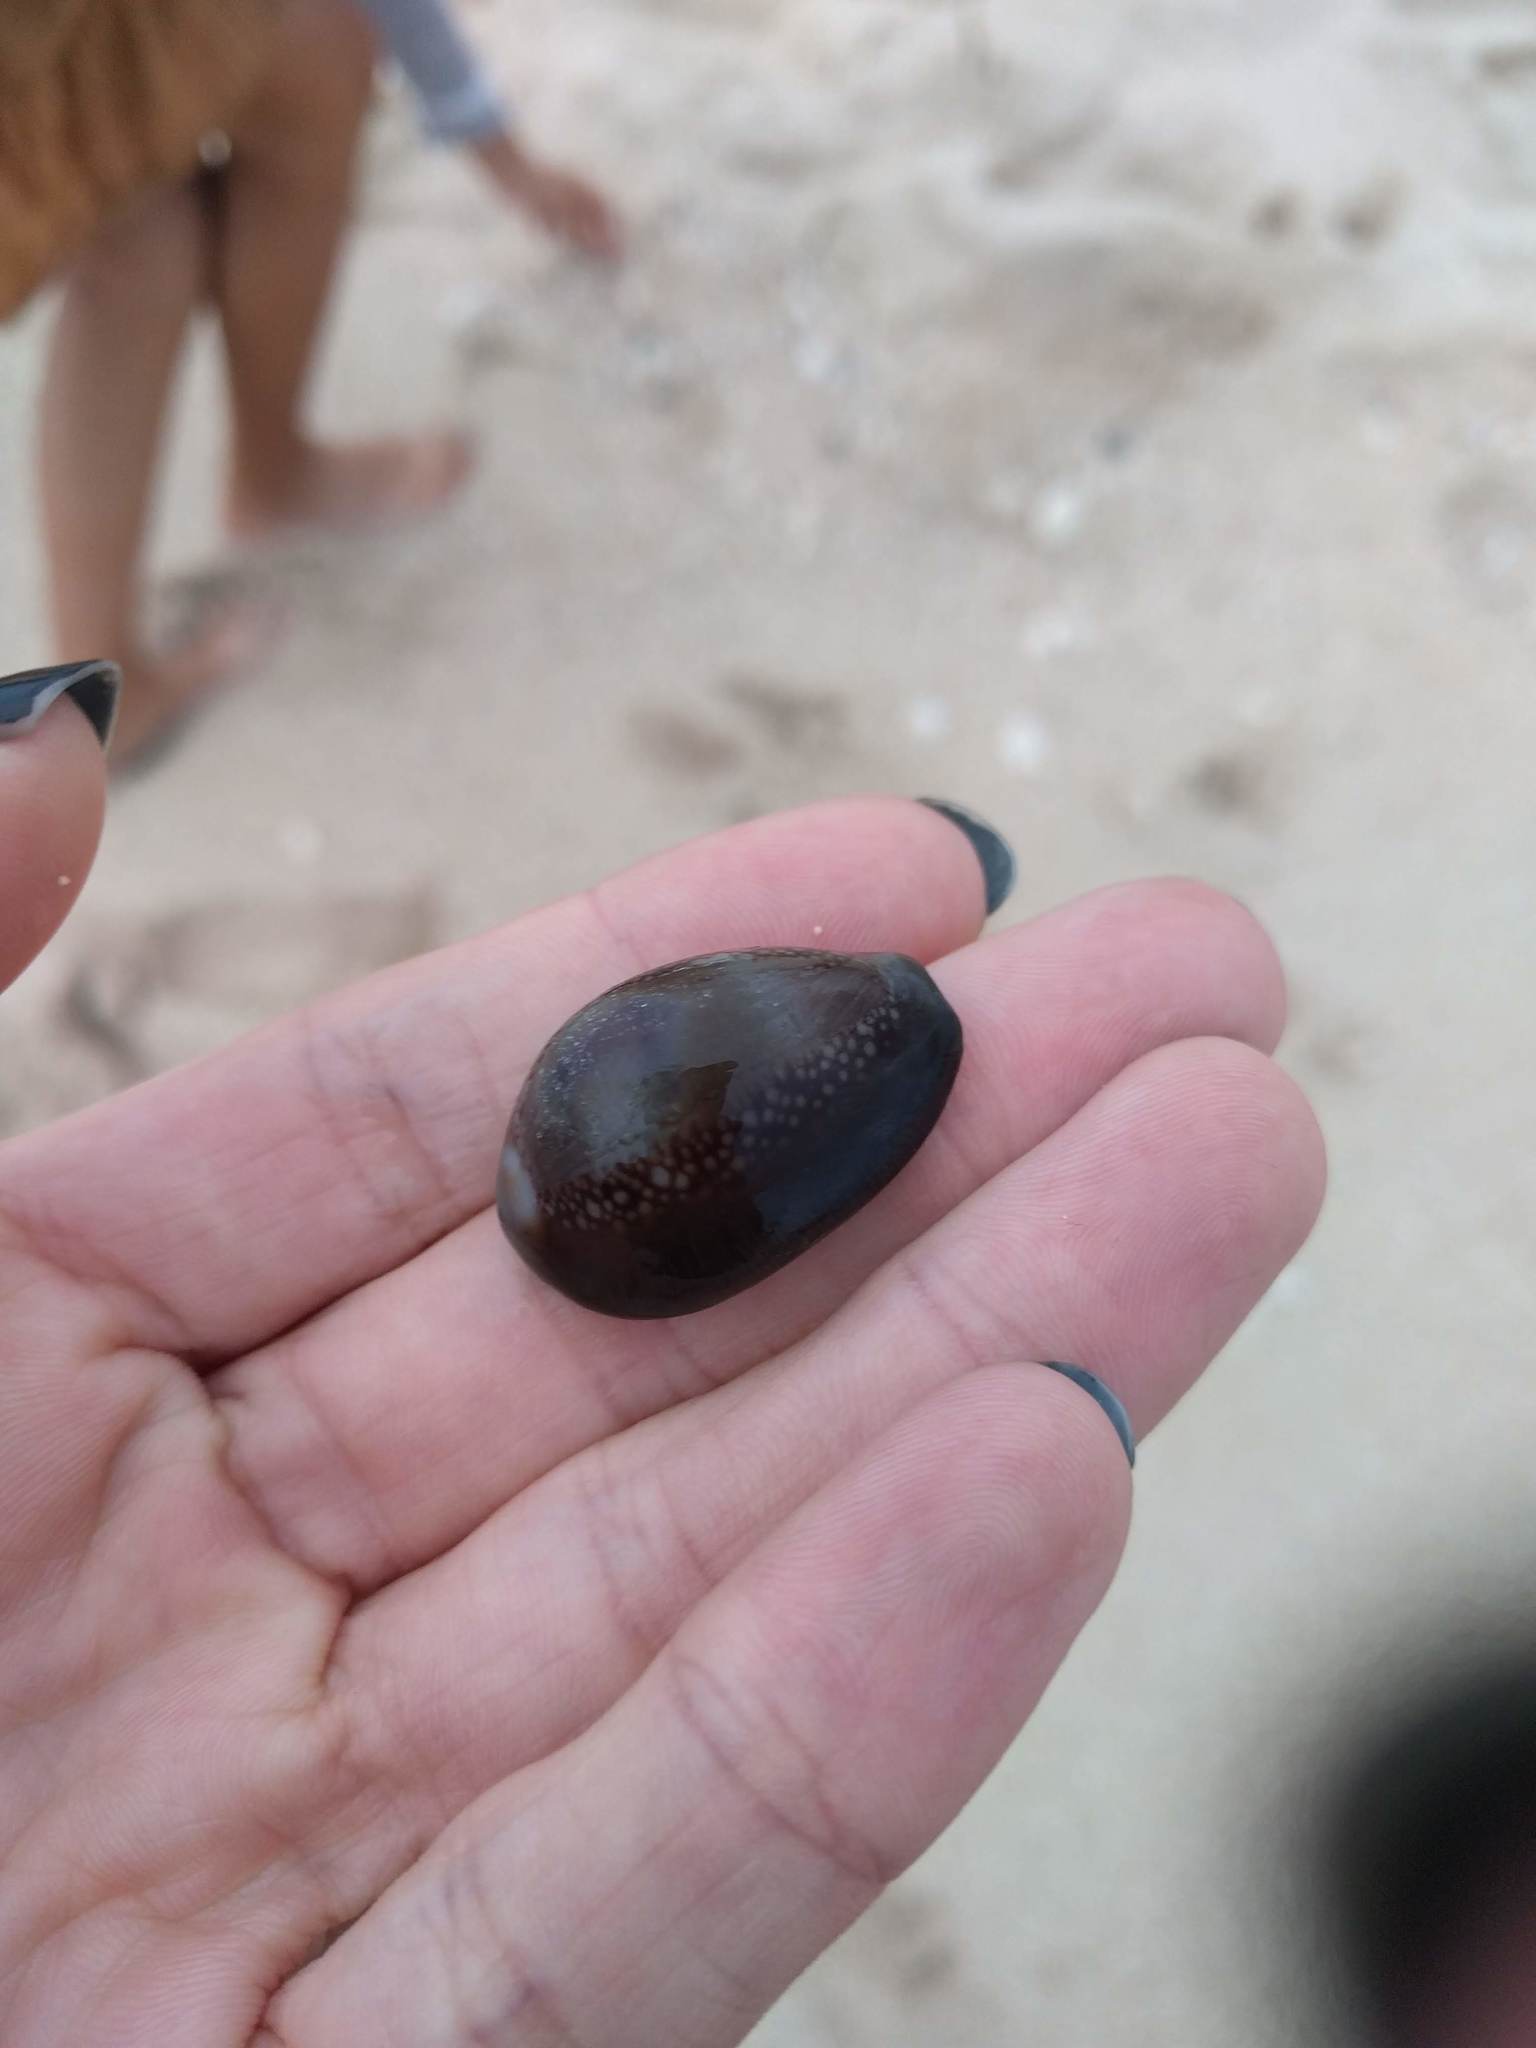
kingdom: Animalia
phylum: Mollusca
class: Gastropoda
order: Littorinimorpha
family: Cypraeidae
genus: Monetaria
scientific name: Monetaria caputophidii
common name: Snake's head cowry
